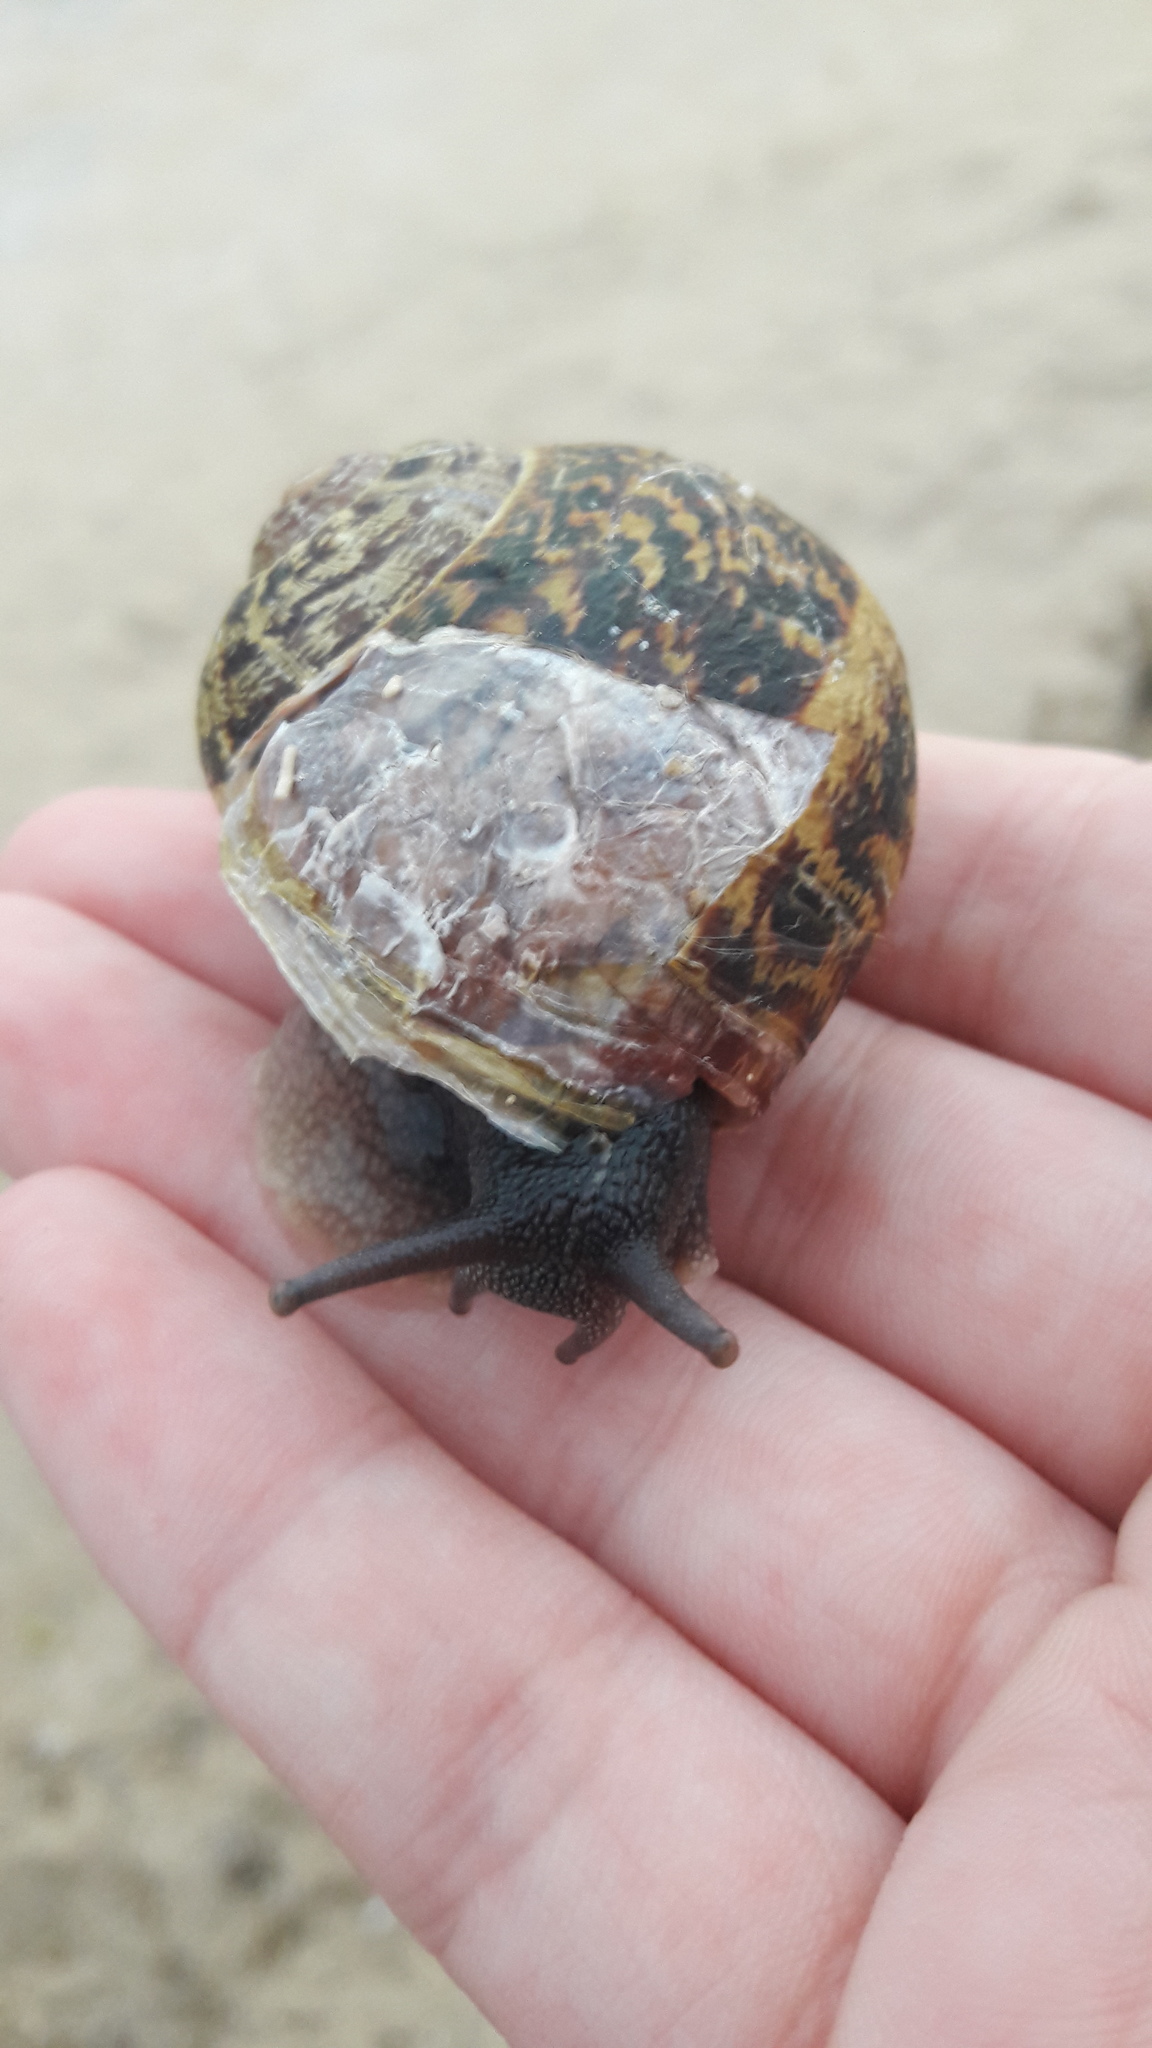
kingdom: Animalia
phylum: Mollusca
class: Gastropoda
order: Stylommatophora
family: Helicidae
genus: Cornu
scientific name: Cornu aspersum
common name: Brown garden snail
